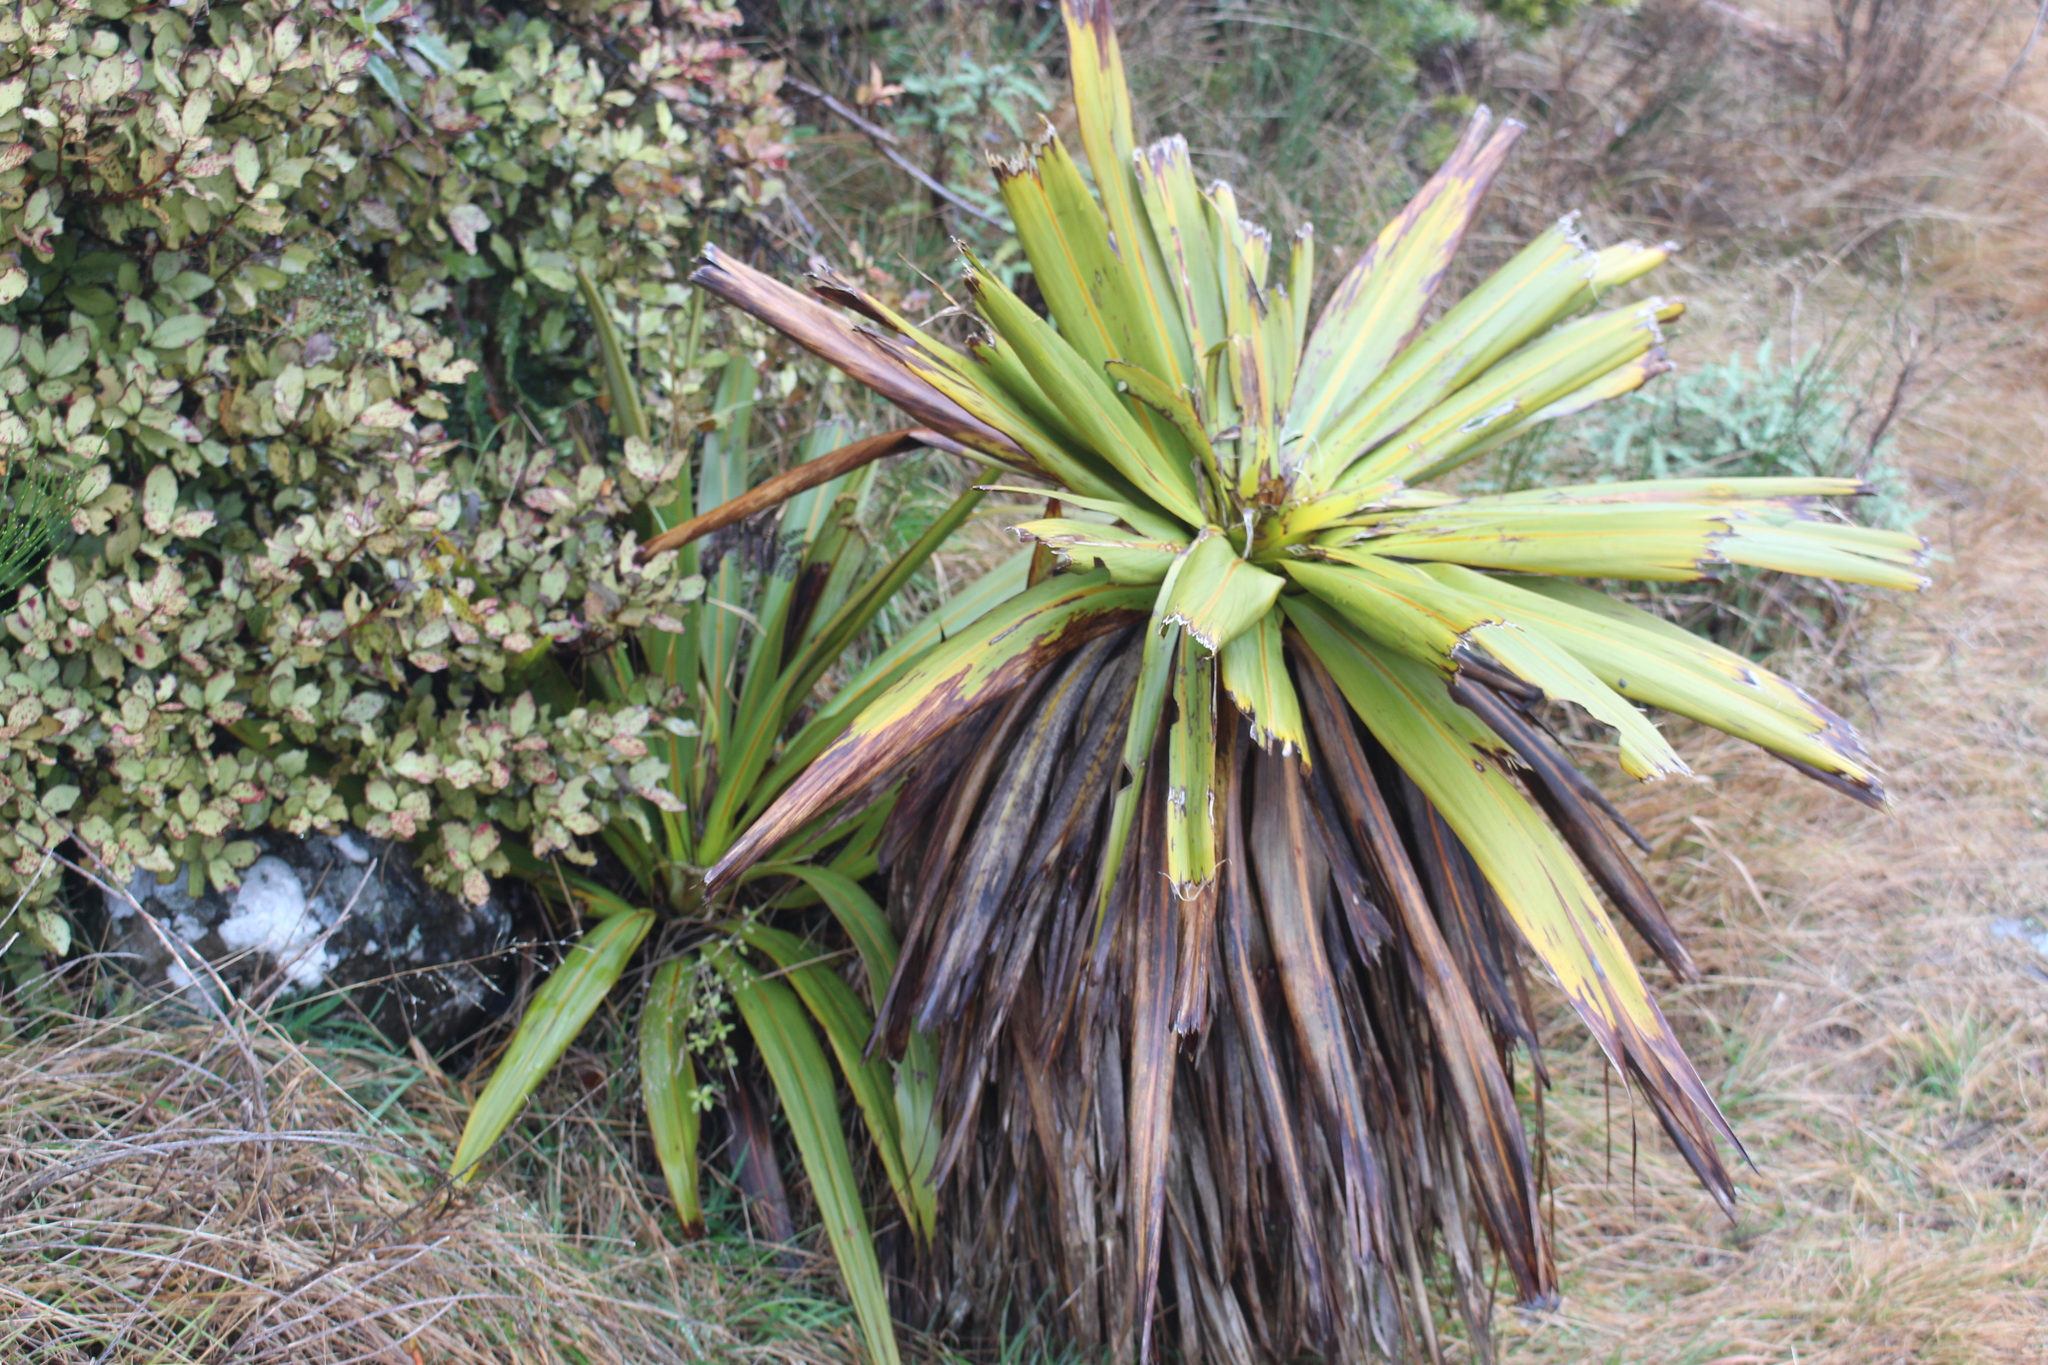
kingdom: Plantae
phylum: Tracheophyta
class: Liliopsida
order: Asparagales
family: Asparagaceae
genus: Cordyline
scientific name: Cordyline indivisa
